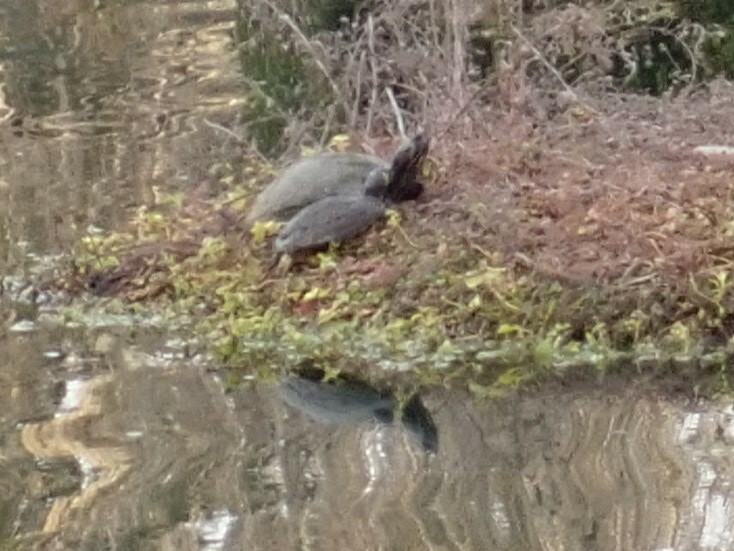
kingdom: Animalia
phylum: Chordata
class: Testudines
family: Emydidae
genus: Trachemys
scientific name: Trachemys scripta
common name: Slider
